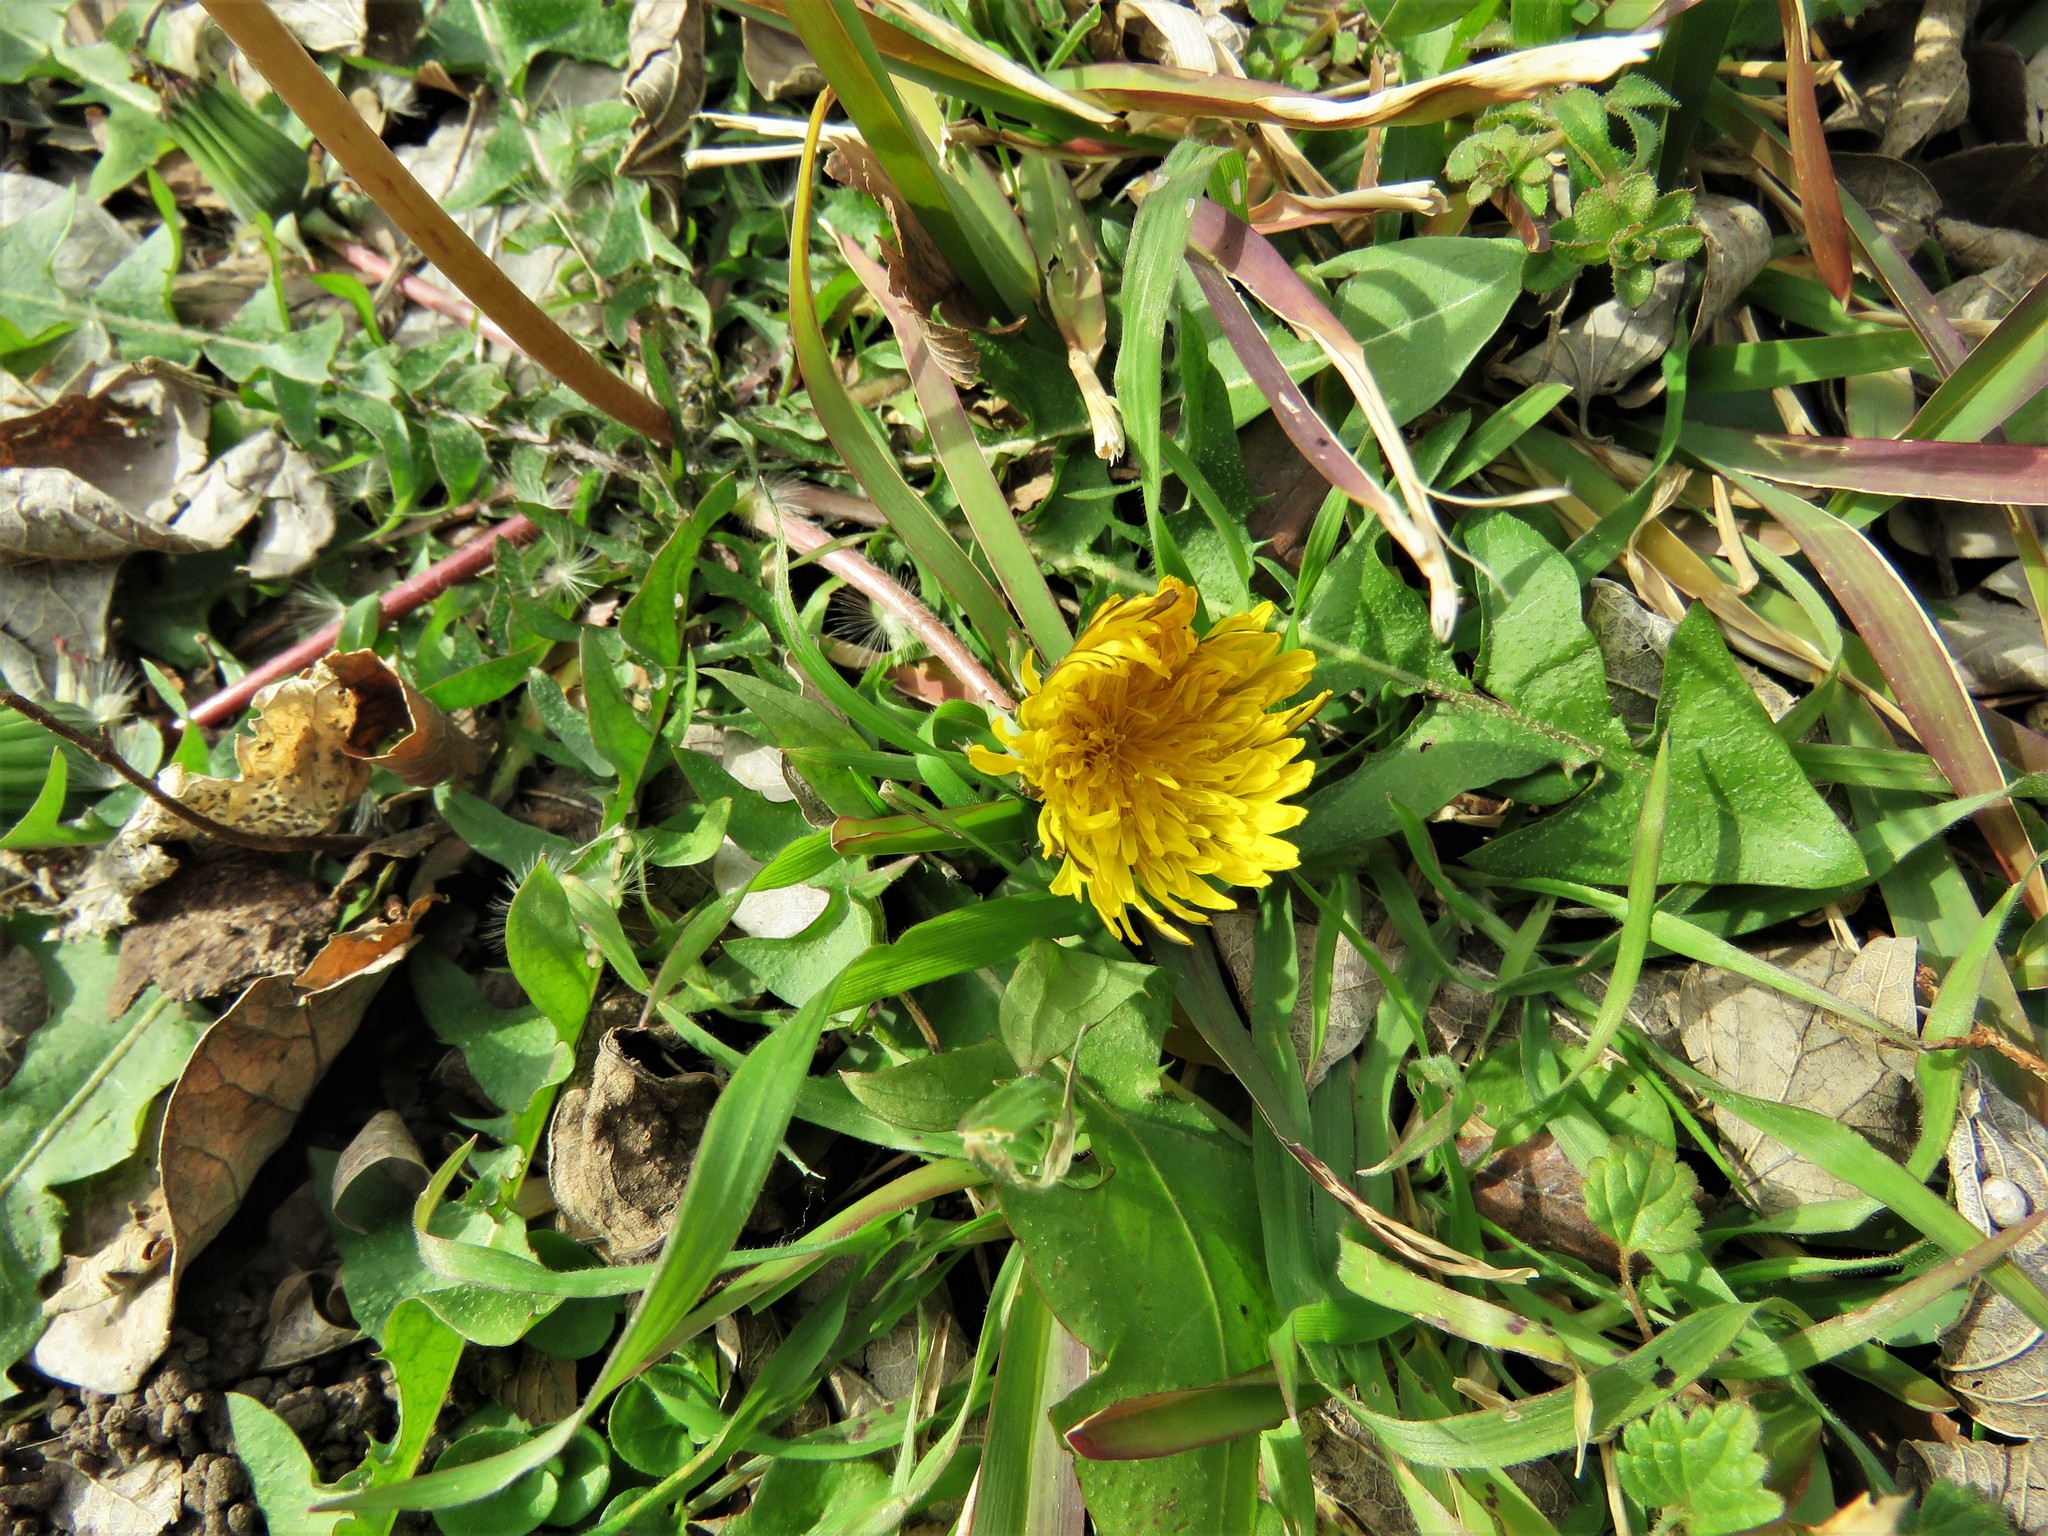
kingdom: Plantae
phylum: Tracheophyta
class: Magnoliopsida
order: Asterales
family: Asteraceae
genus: Taraxacum
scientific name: Taraxacum officinale
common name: Common dandelion
